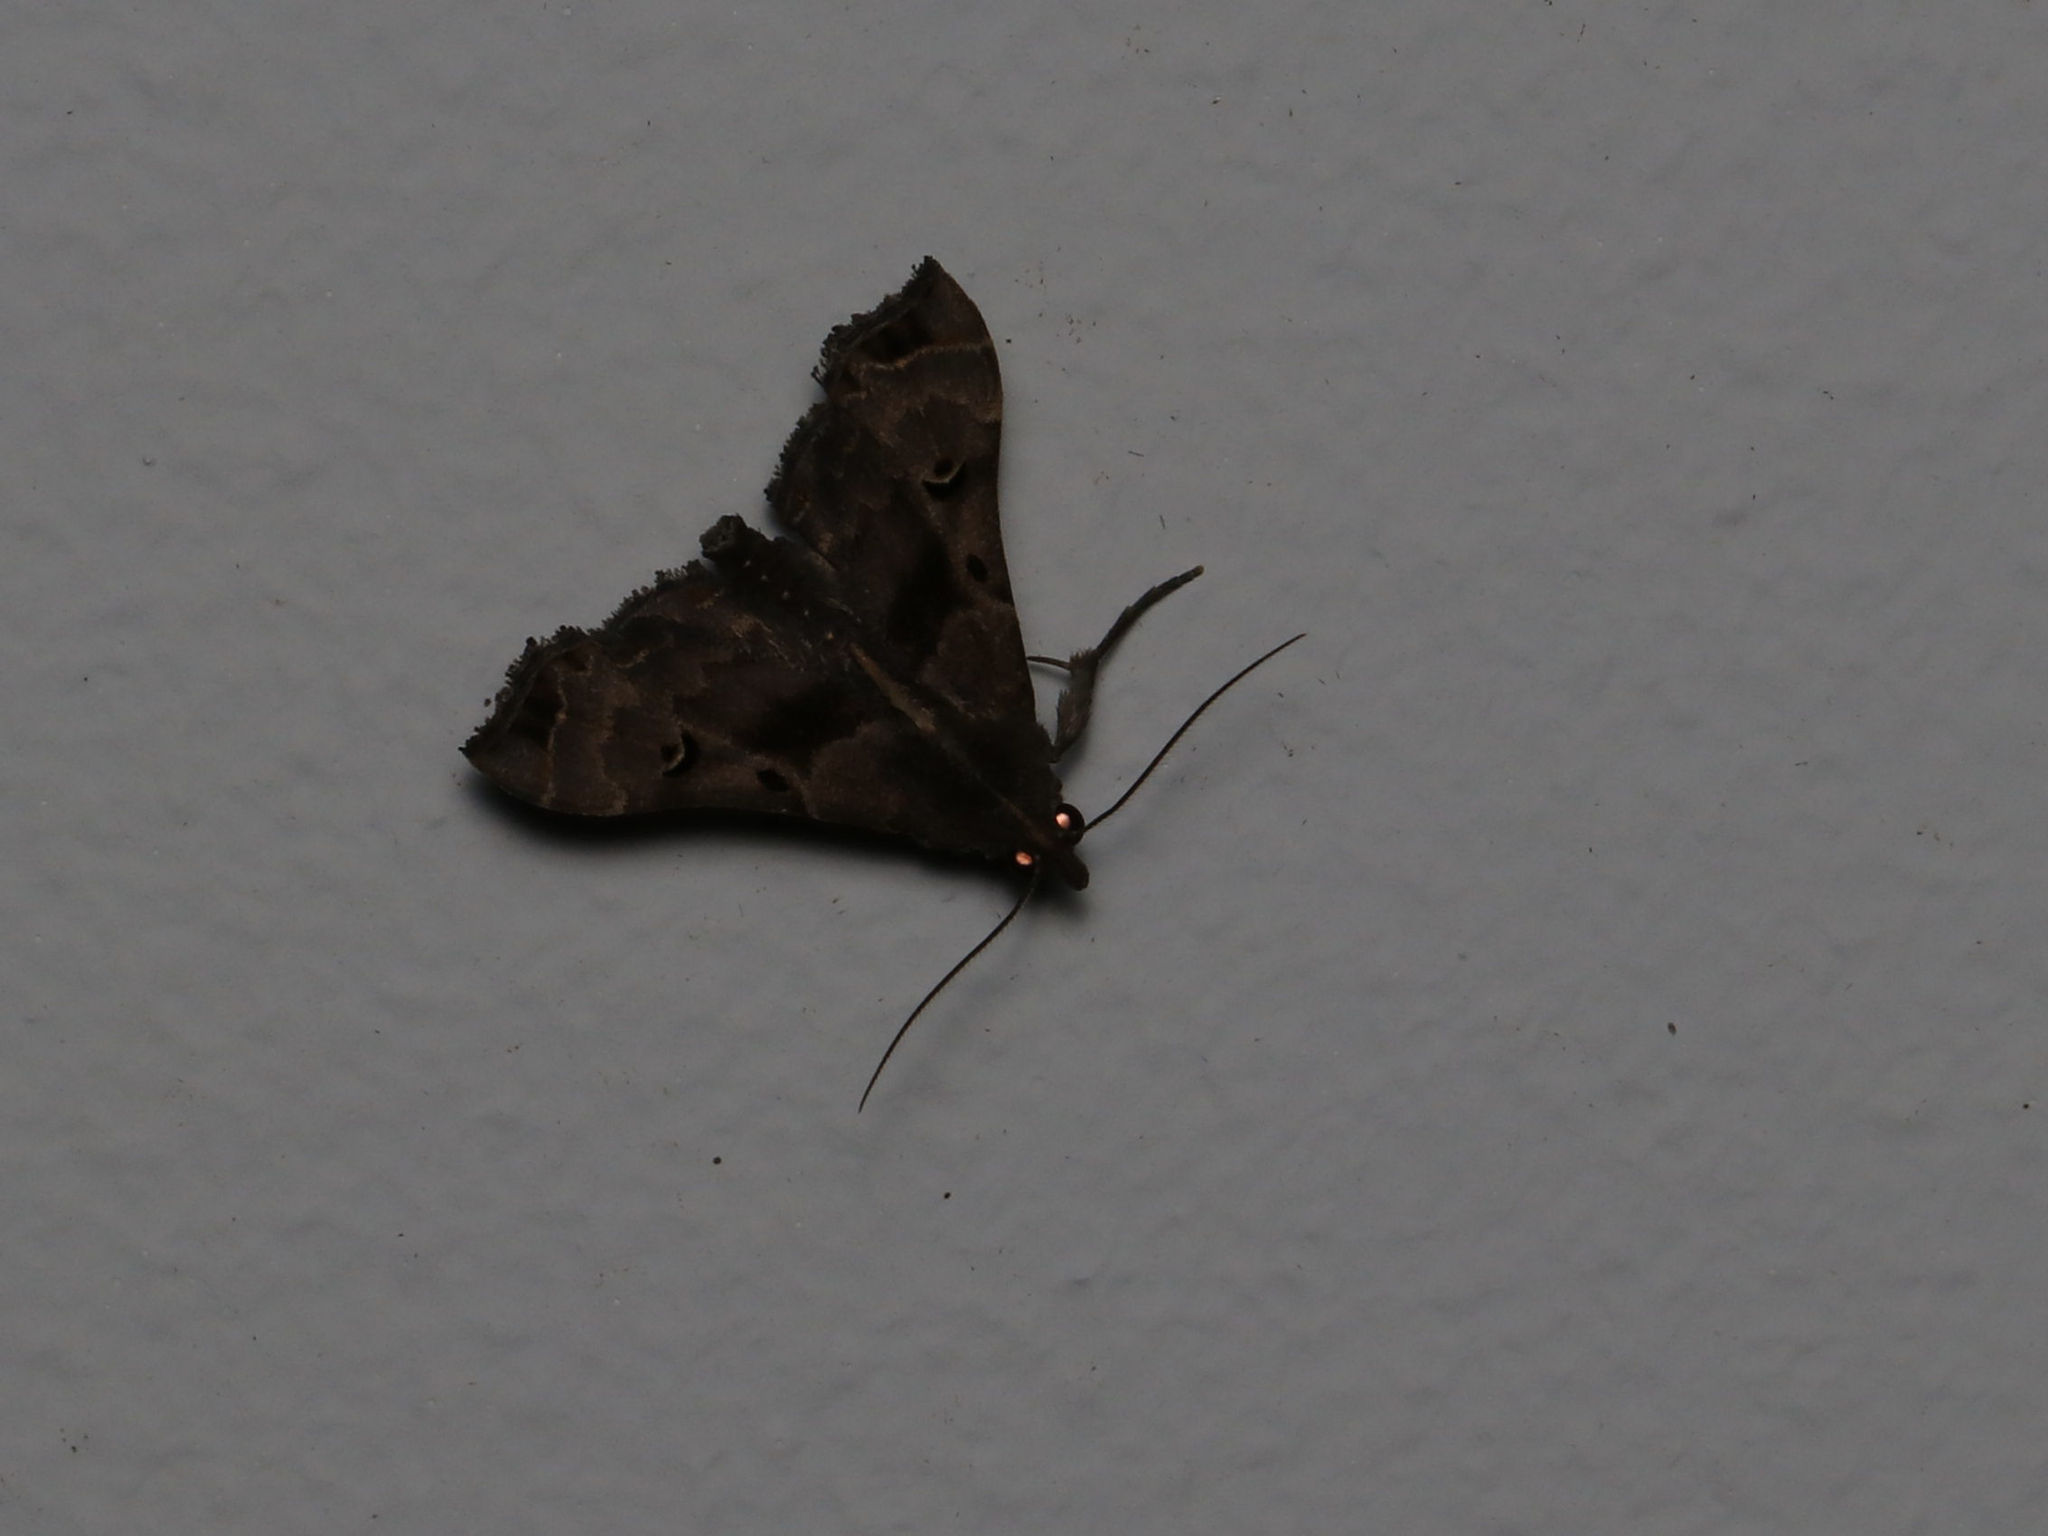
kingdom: Animalia
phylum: Arthropoda
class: Insecta
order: Lepidoptera
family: Erebidae
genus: Palthis
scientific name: Palthis asopialis
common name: Faint-spotted palthis moth
